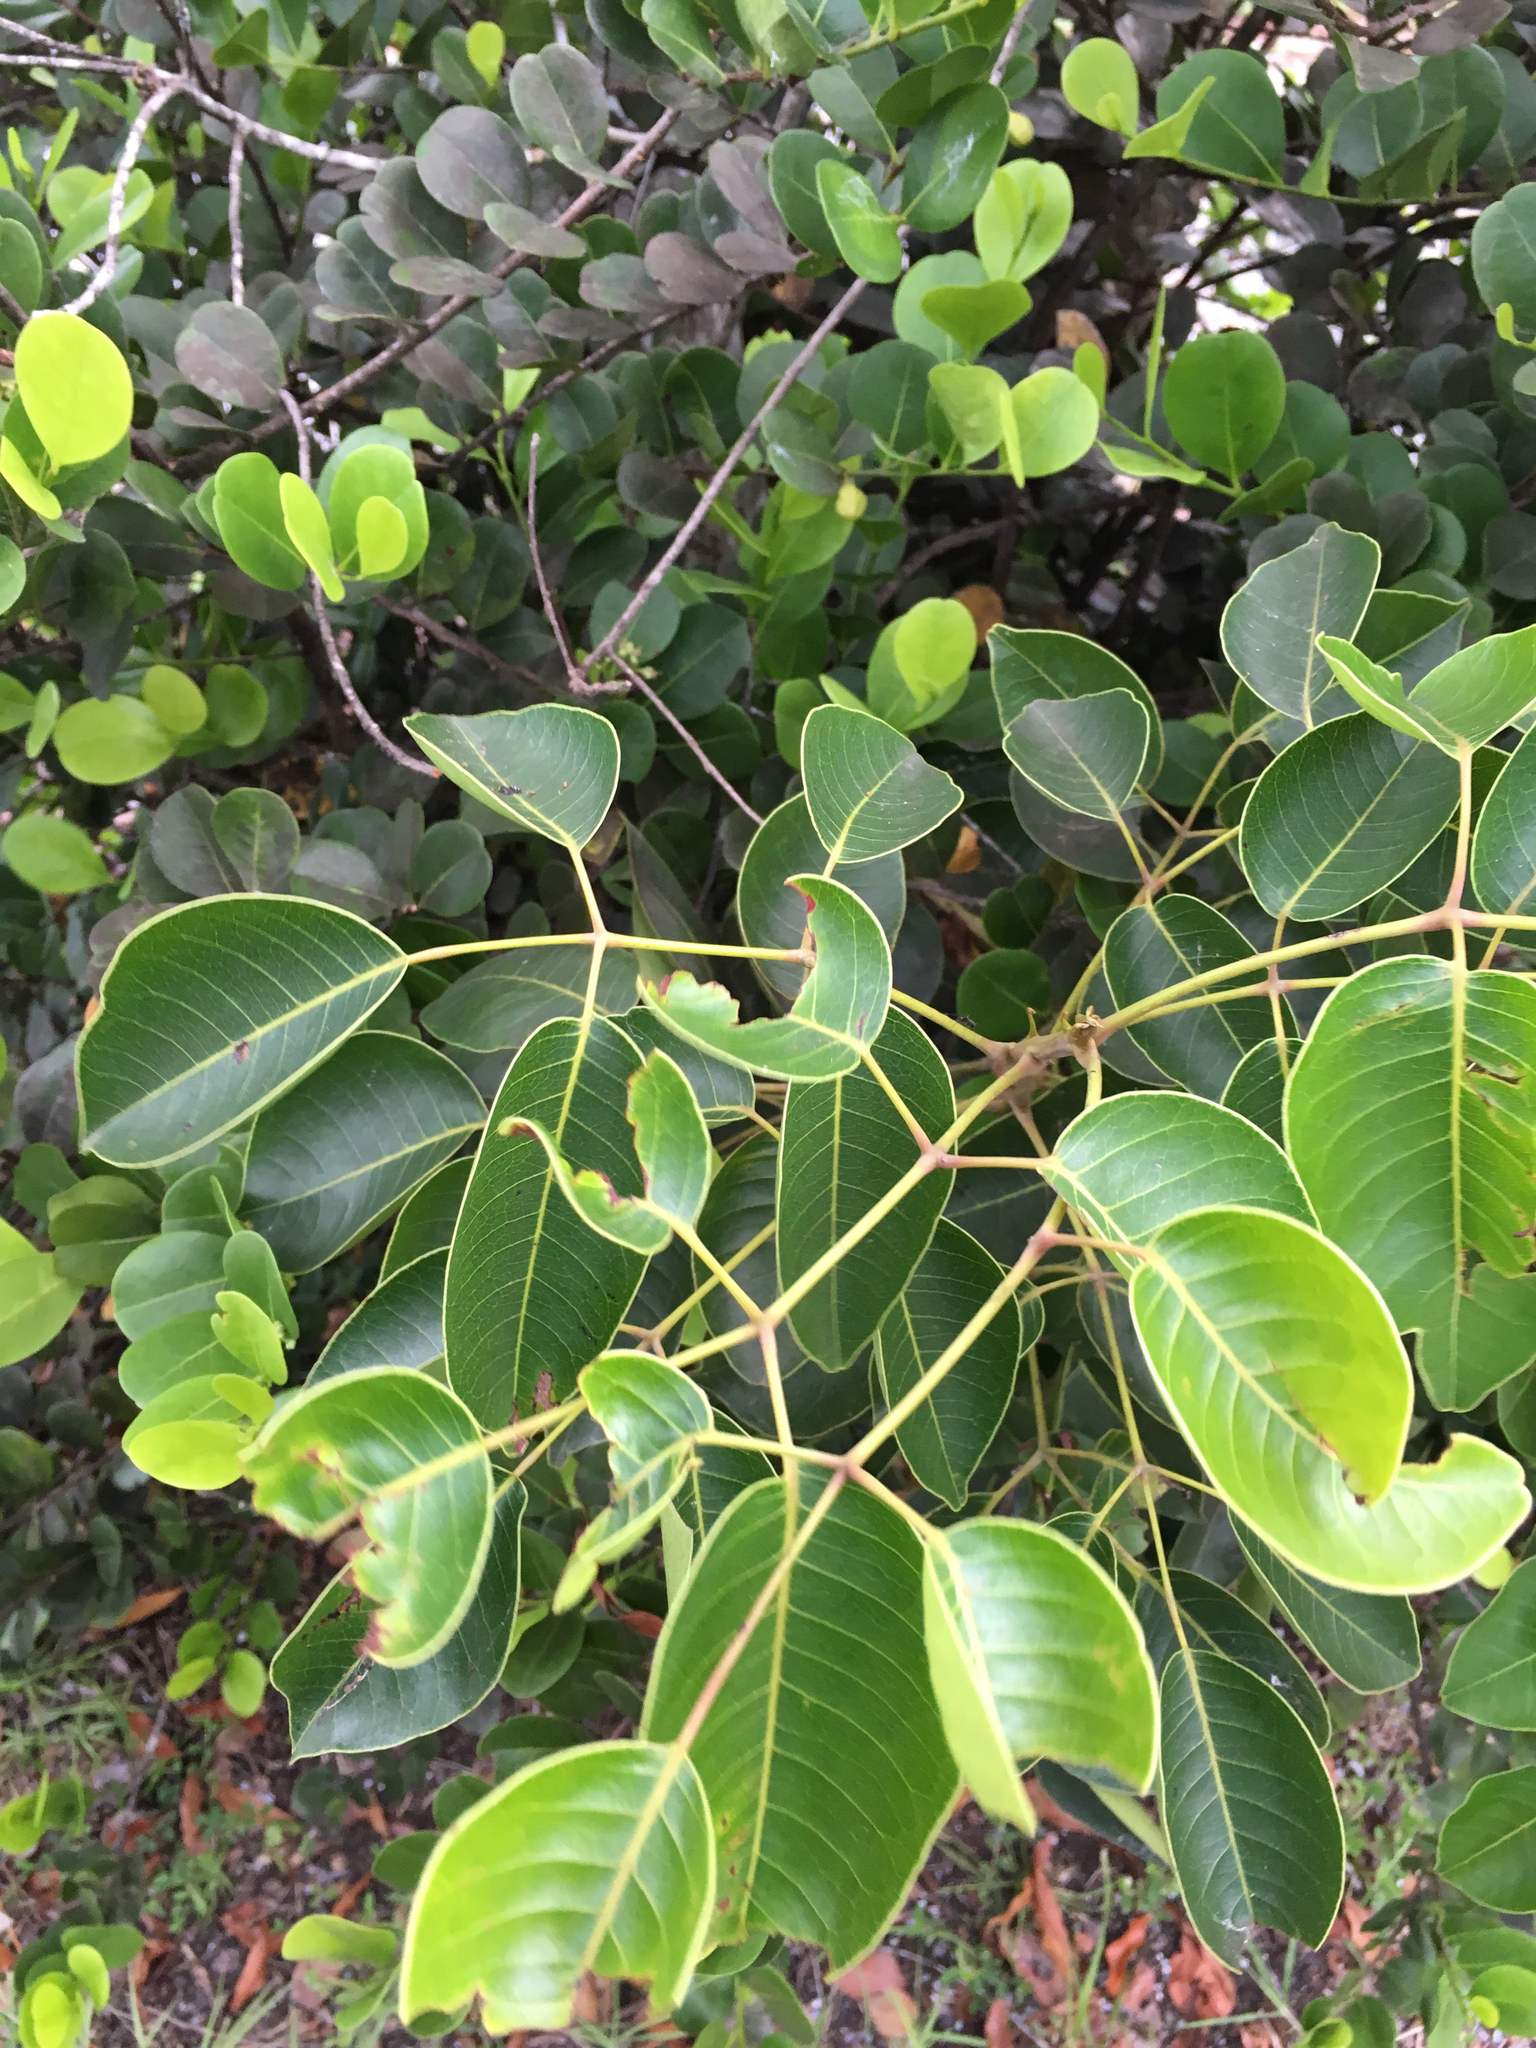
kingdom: Plantae
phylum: Tracheophyta
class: Magnoliopsida
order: Sapindales
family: Anacardiaceae
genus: Metopium
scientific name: Metopium toxiferum
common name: Florida poisontree
